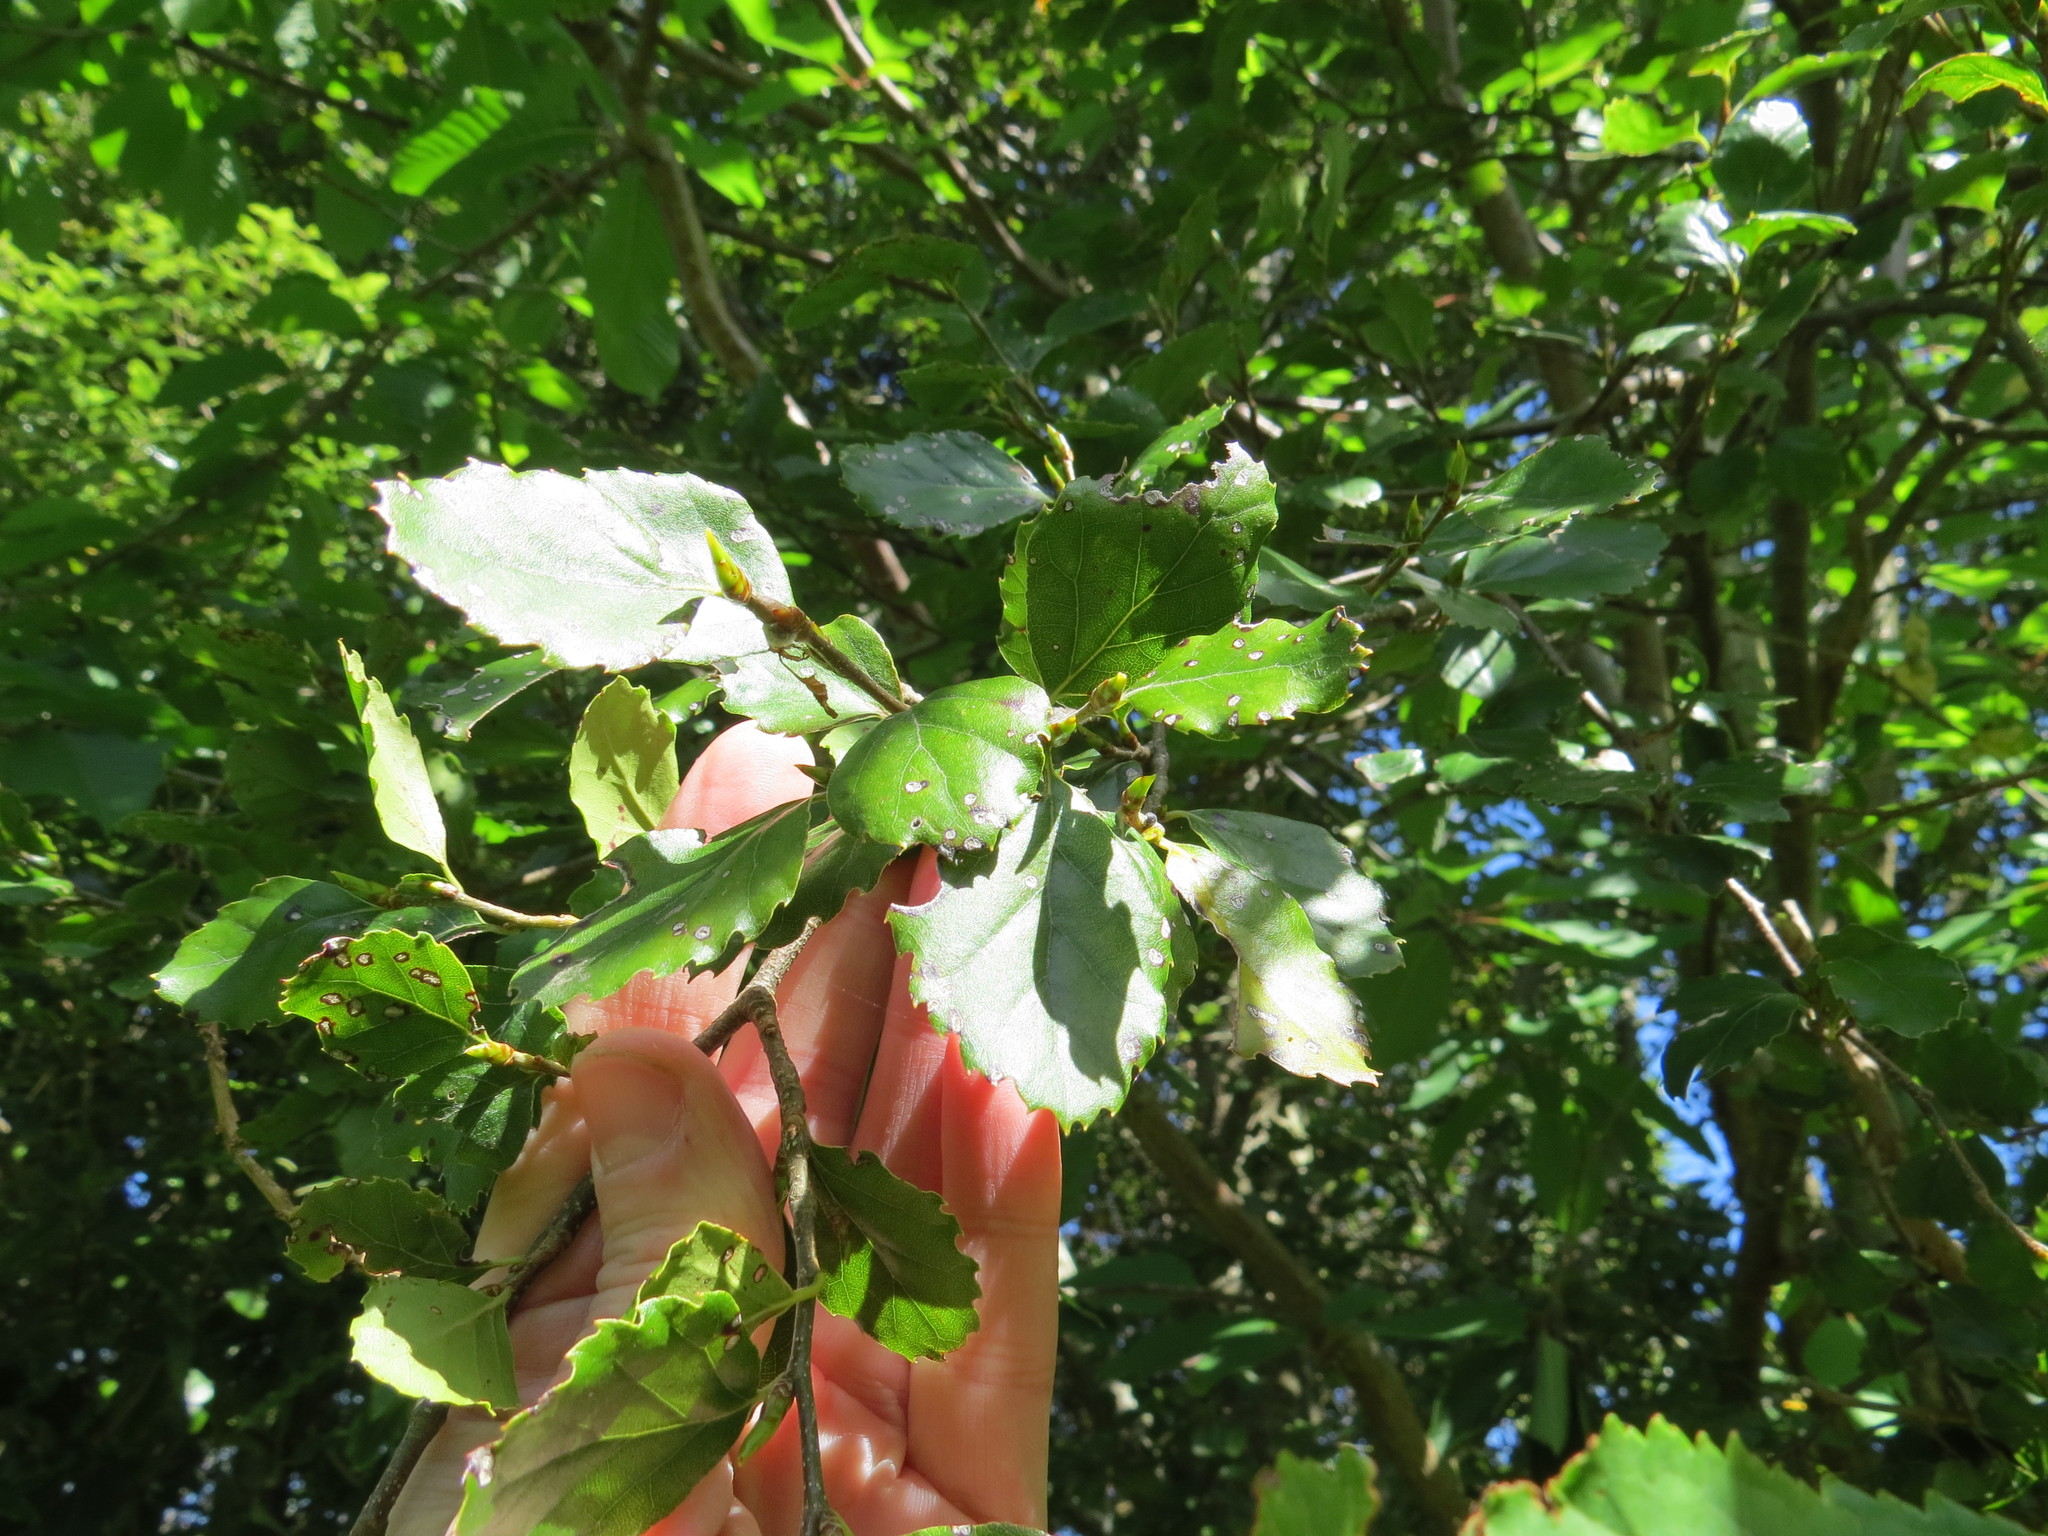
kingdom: Plantae
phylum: Tracheophyta
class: Magnoliopsida
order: Fagales
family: Nothofagaceae
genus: Nothofagus
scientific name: Nothofagus fusca
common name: Red beech
